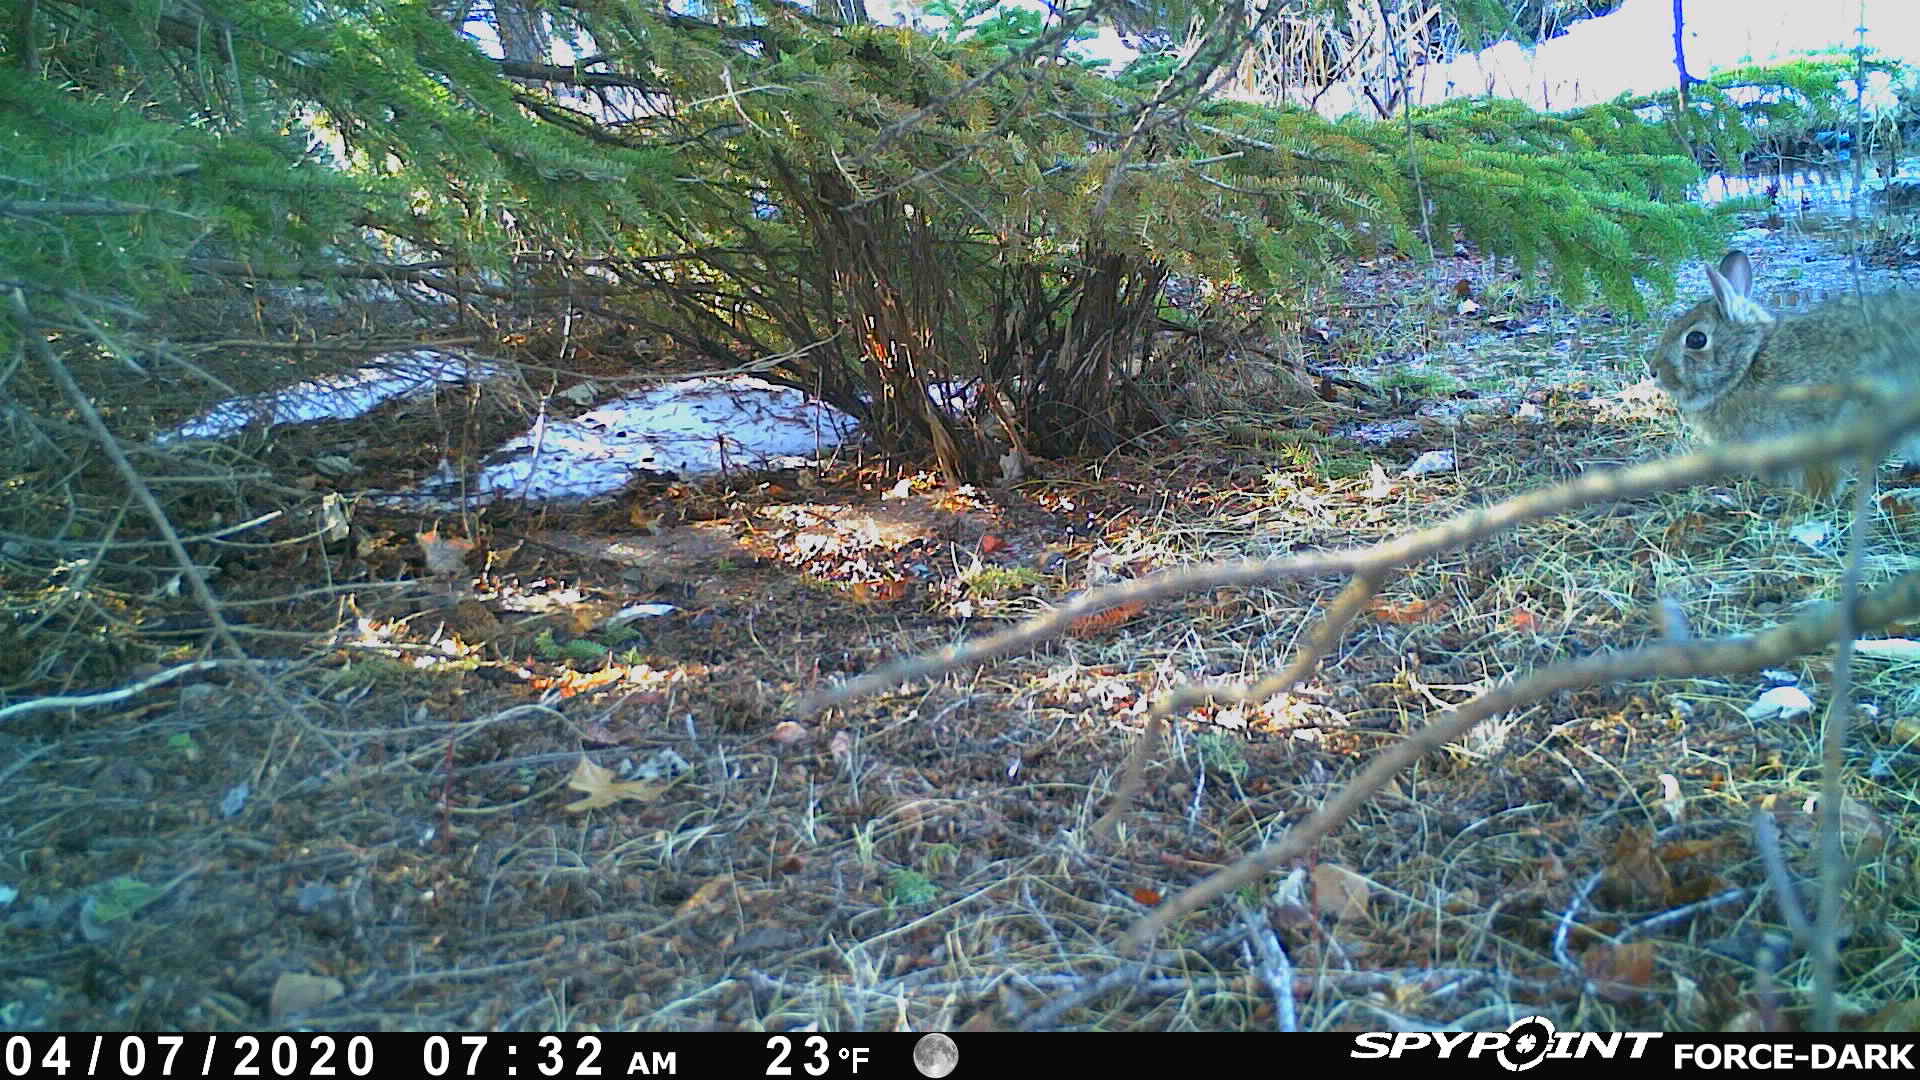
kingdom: Animalia
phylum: Chordata
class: Mammalia
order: Lagomorpha
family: Leporidae
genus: Sylvilagus
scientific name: Sylvilagus floridanus
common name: Eastern cottontail
